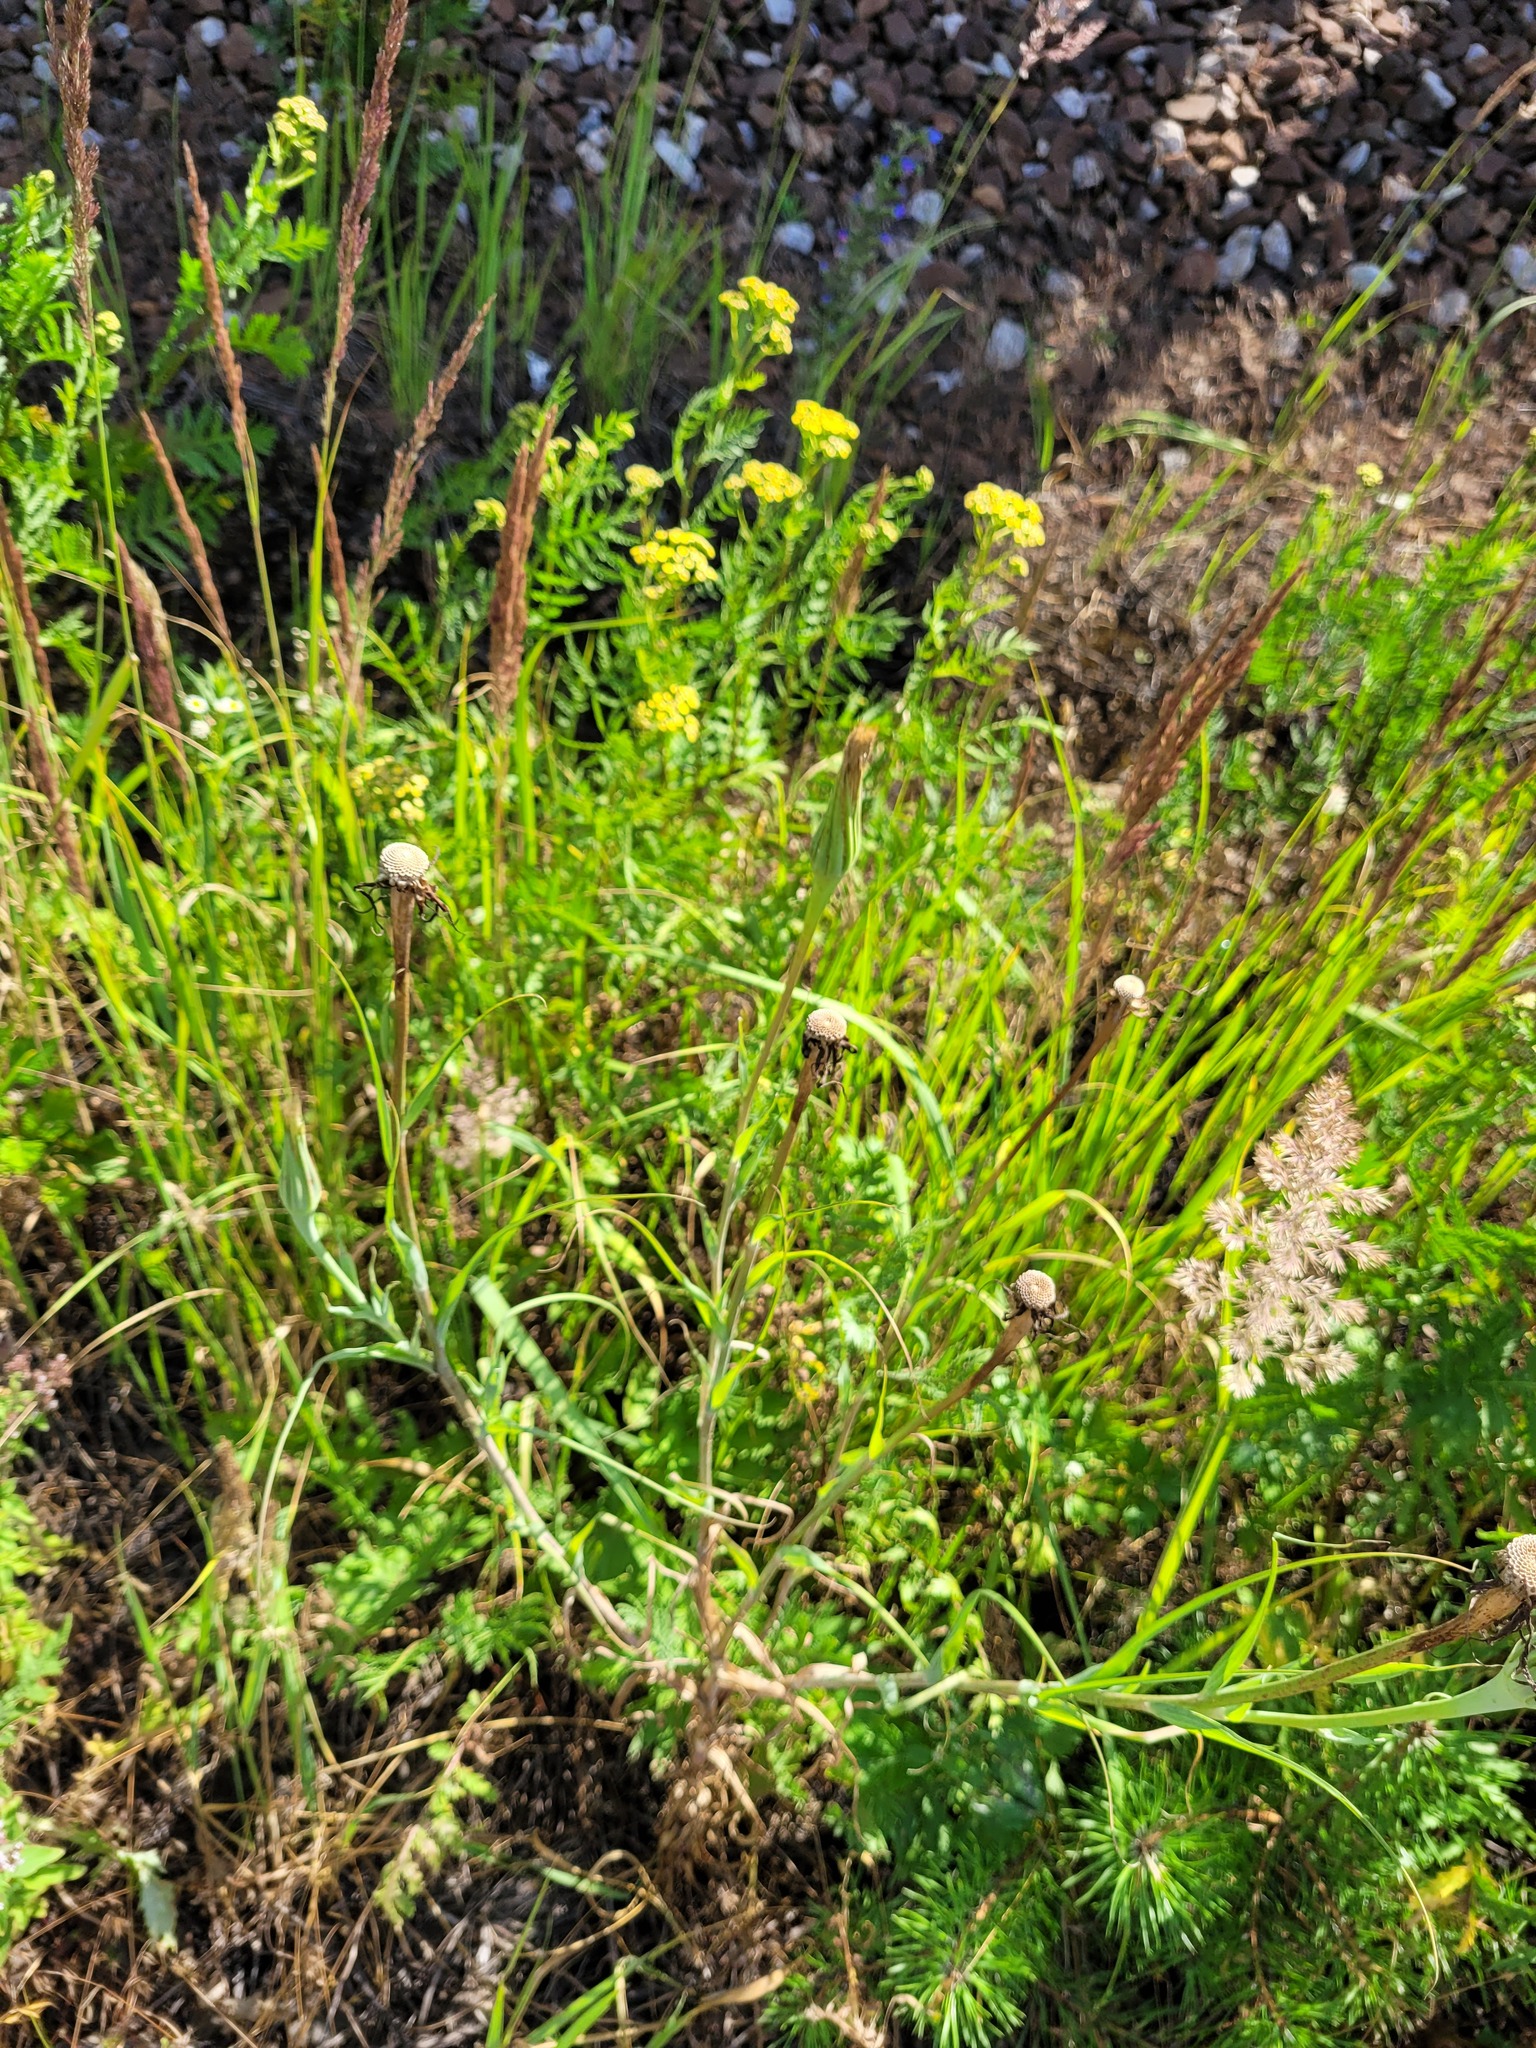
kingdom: Plantae
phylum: Tracheophyta
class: Magnoliopsida
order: Asterales
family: Asteraceae
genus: Tragopogon
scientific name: Tragopogon dubius
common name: Yellow salsify
